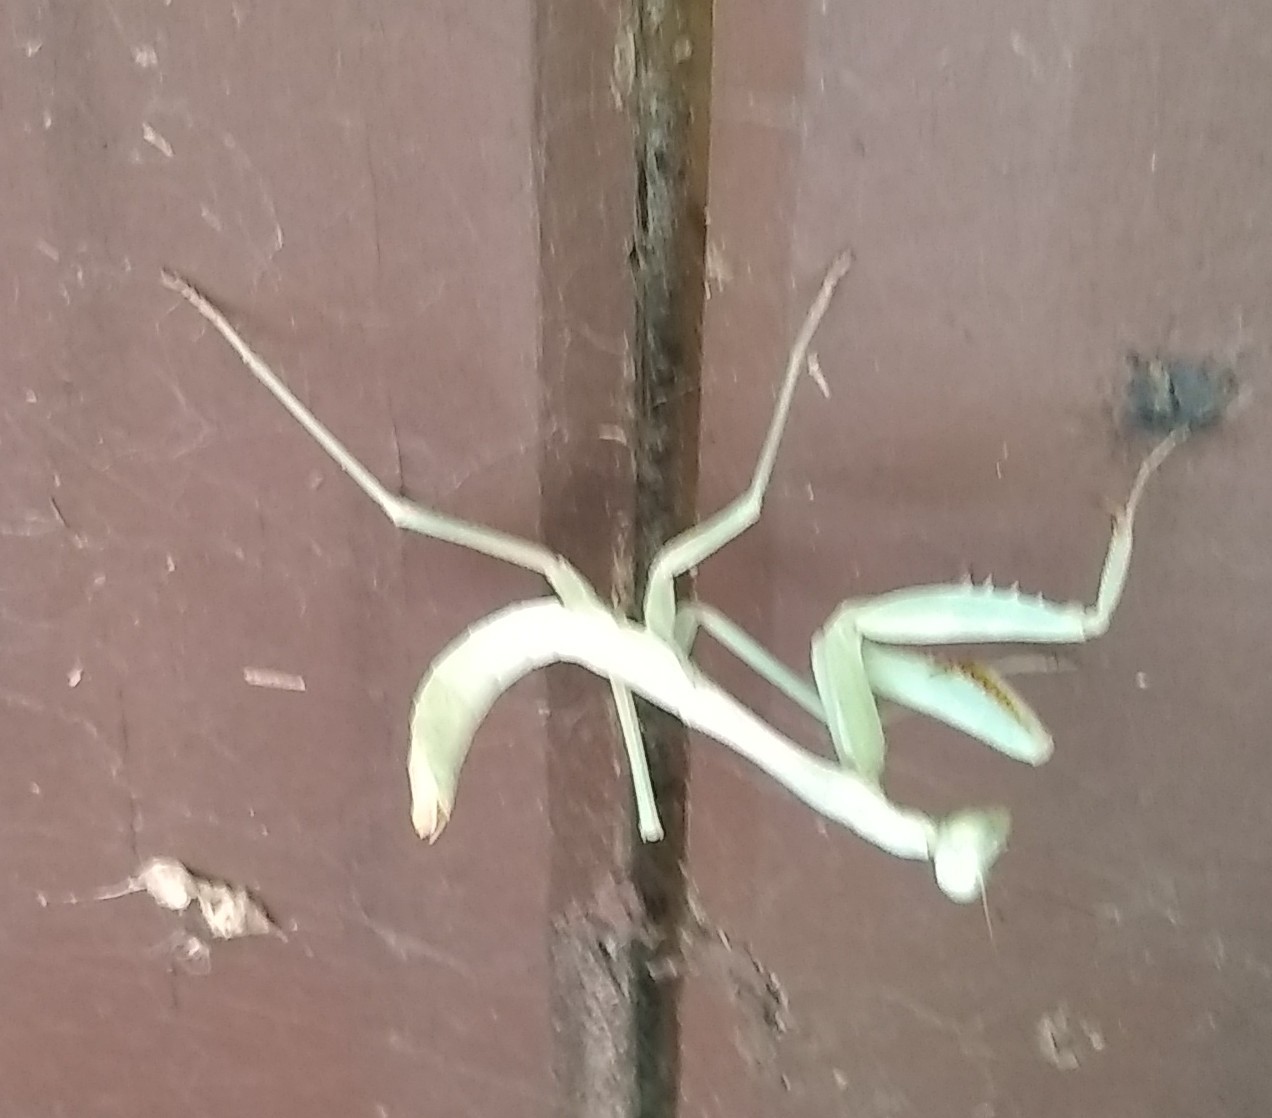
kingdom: Animalia
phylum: Arthropoda
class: Insecta
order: Mantodea
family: Mantidae
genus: Stagmomantis
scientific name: Stagmomantis carolina
